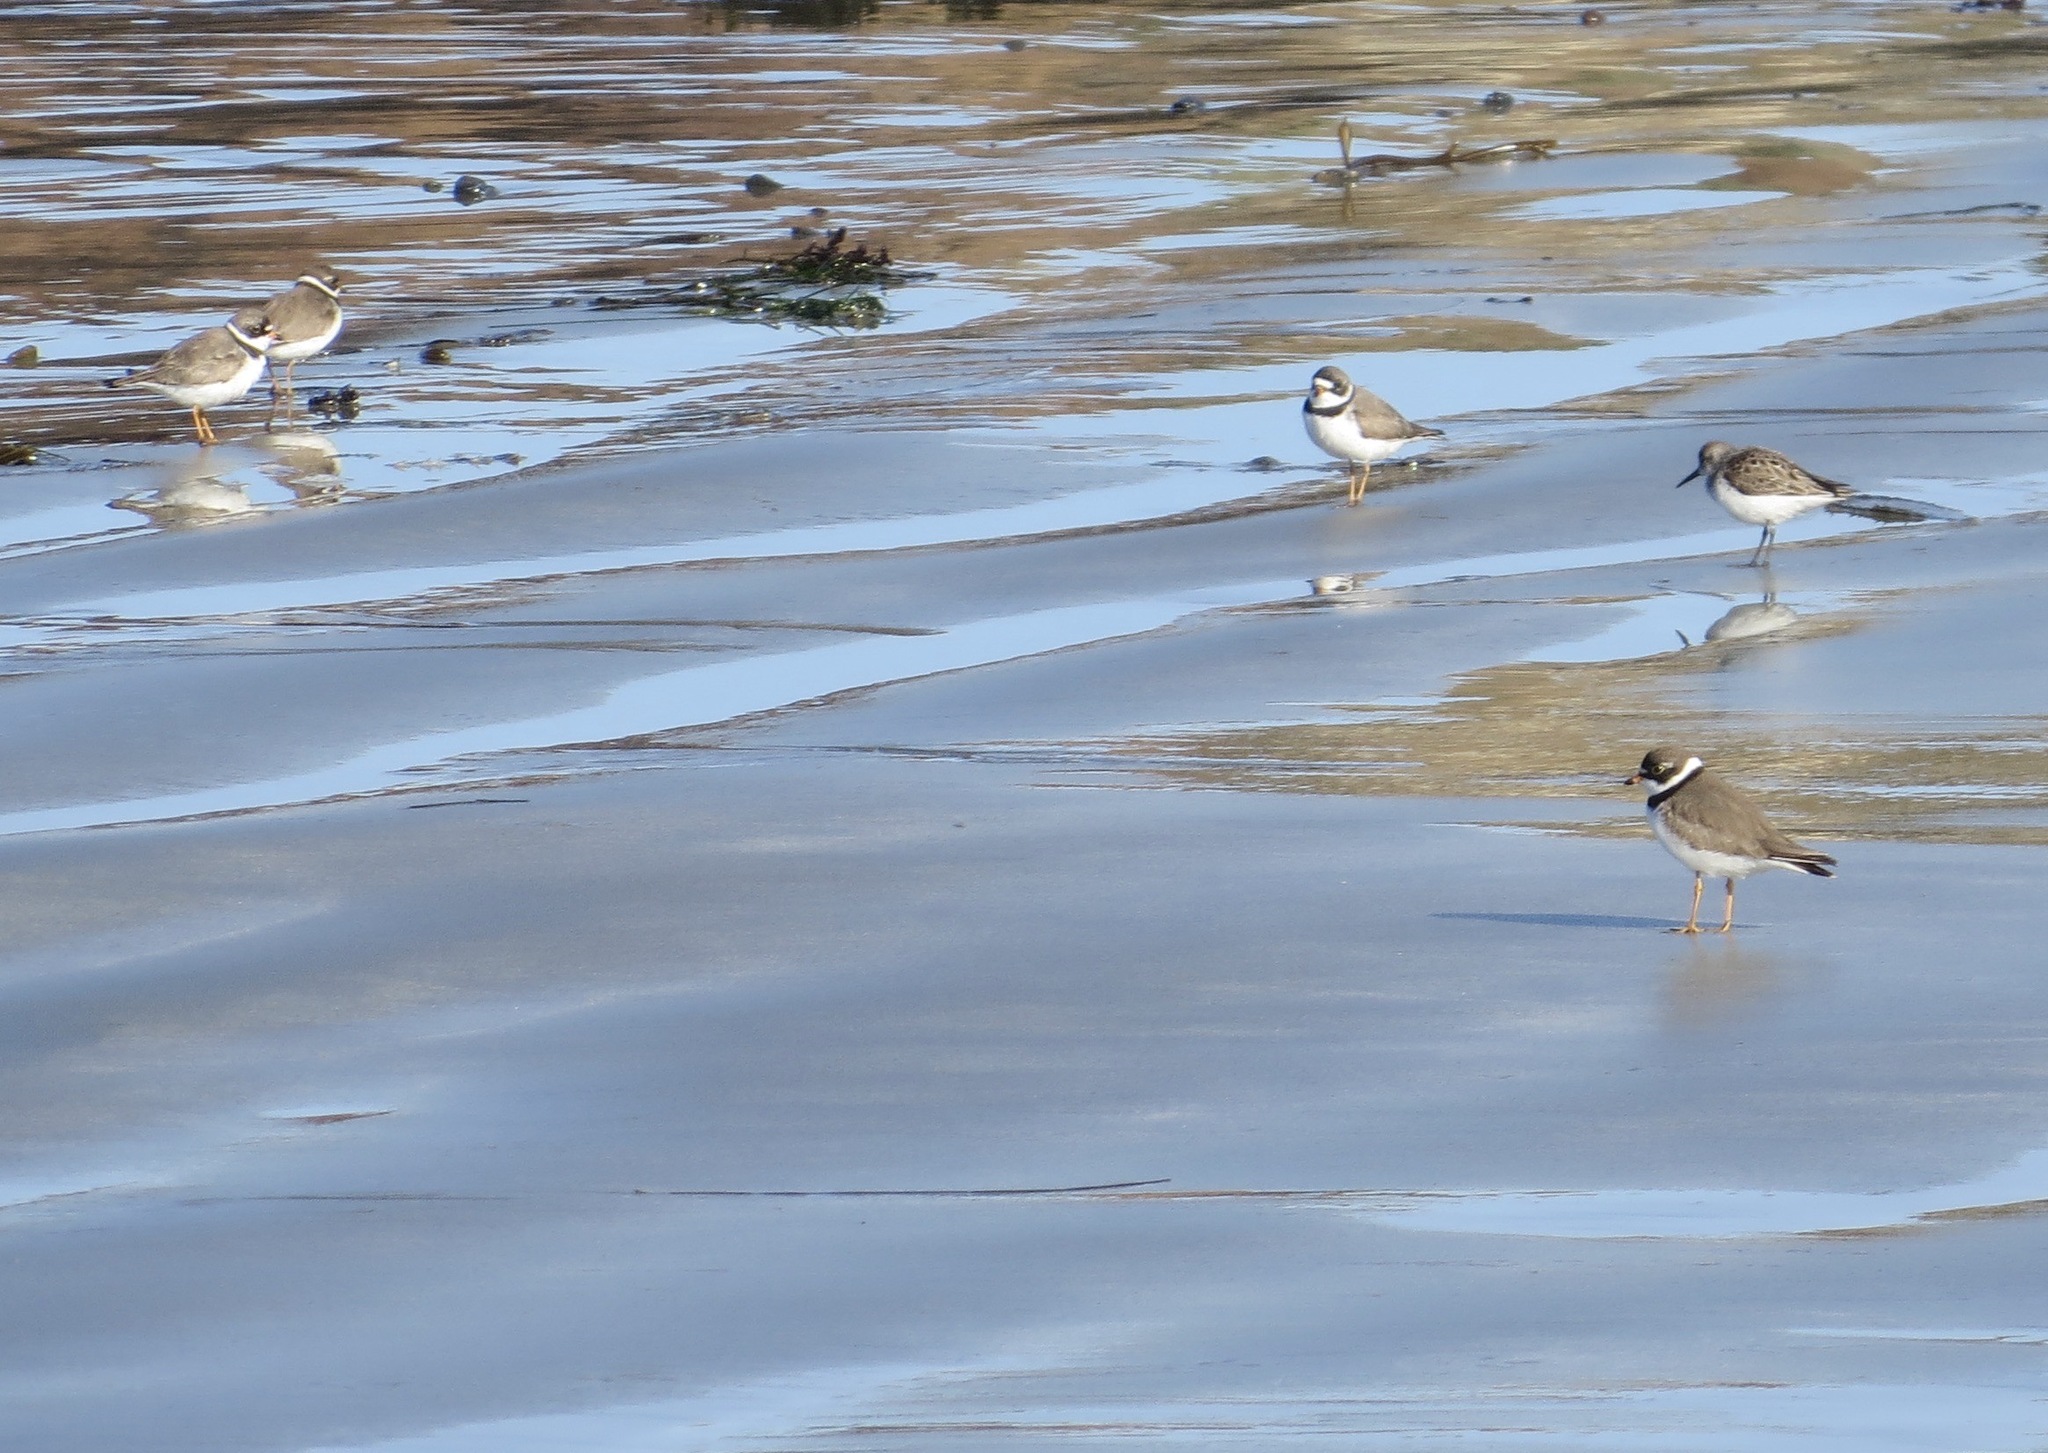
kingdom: Animalia
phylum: Chordata
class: Aves
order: Charadriiformes
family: Charadriidae
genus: Charadrius
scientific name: Charadrius semipalmatus
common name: Semipalmated plover
